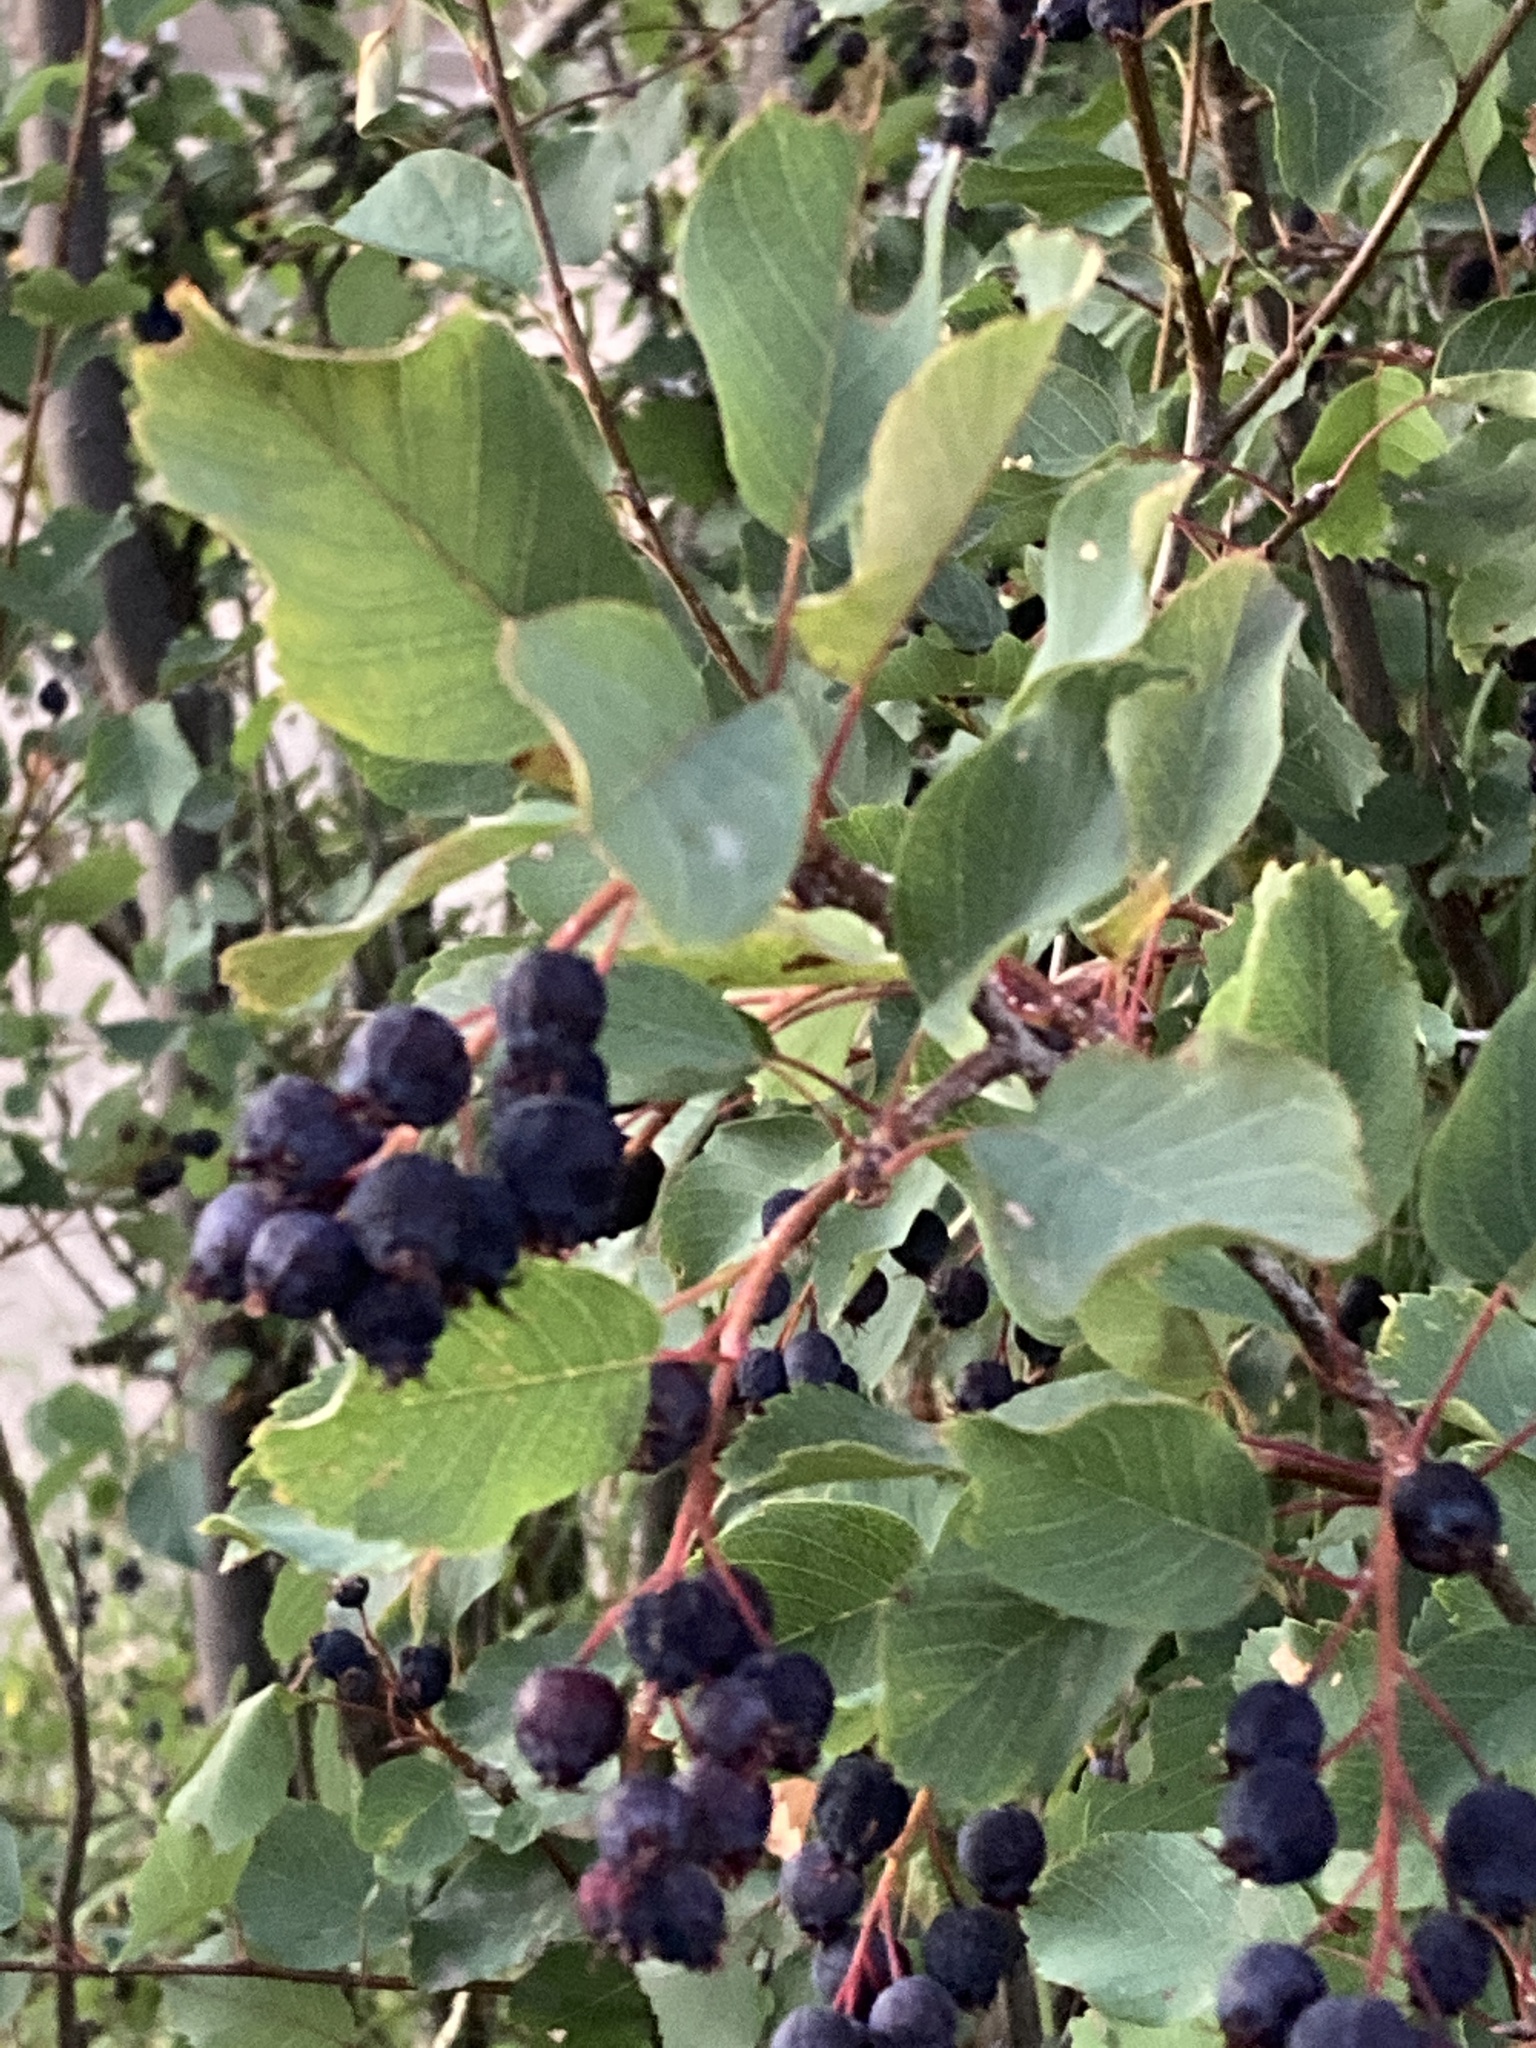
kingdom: Plantae
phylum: Tracheophyta
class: Magnoliopsida
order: Rosales
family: Rosaceae
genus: Amelanchier
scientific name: Amelanchier alnifolia
